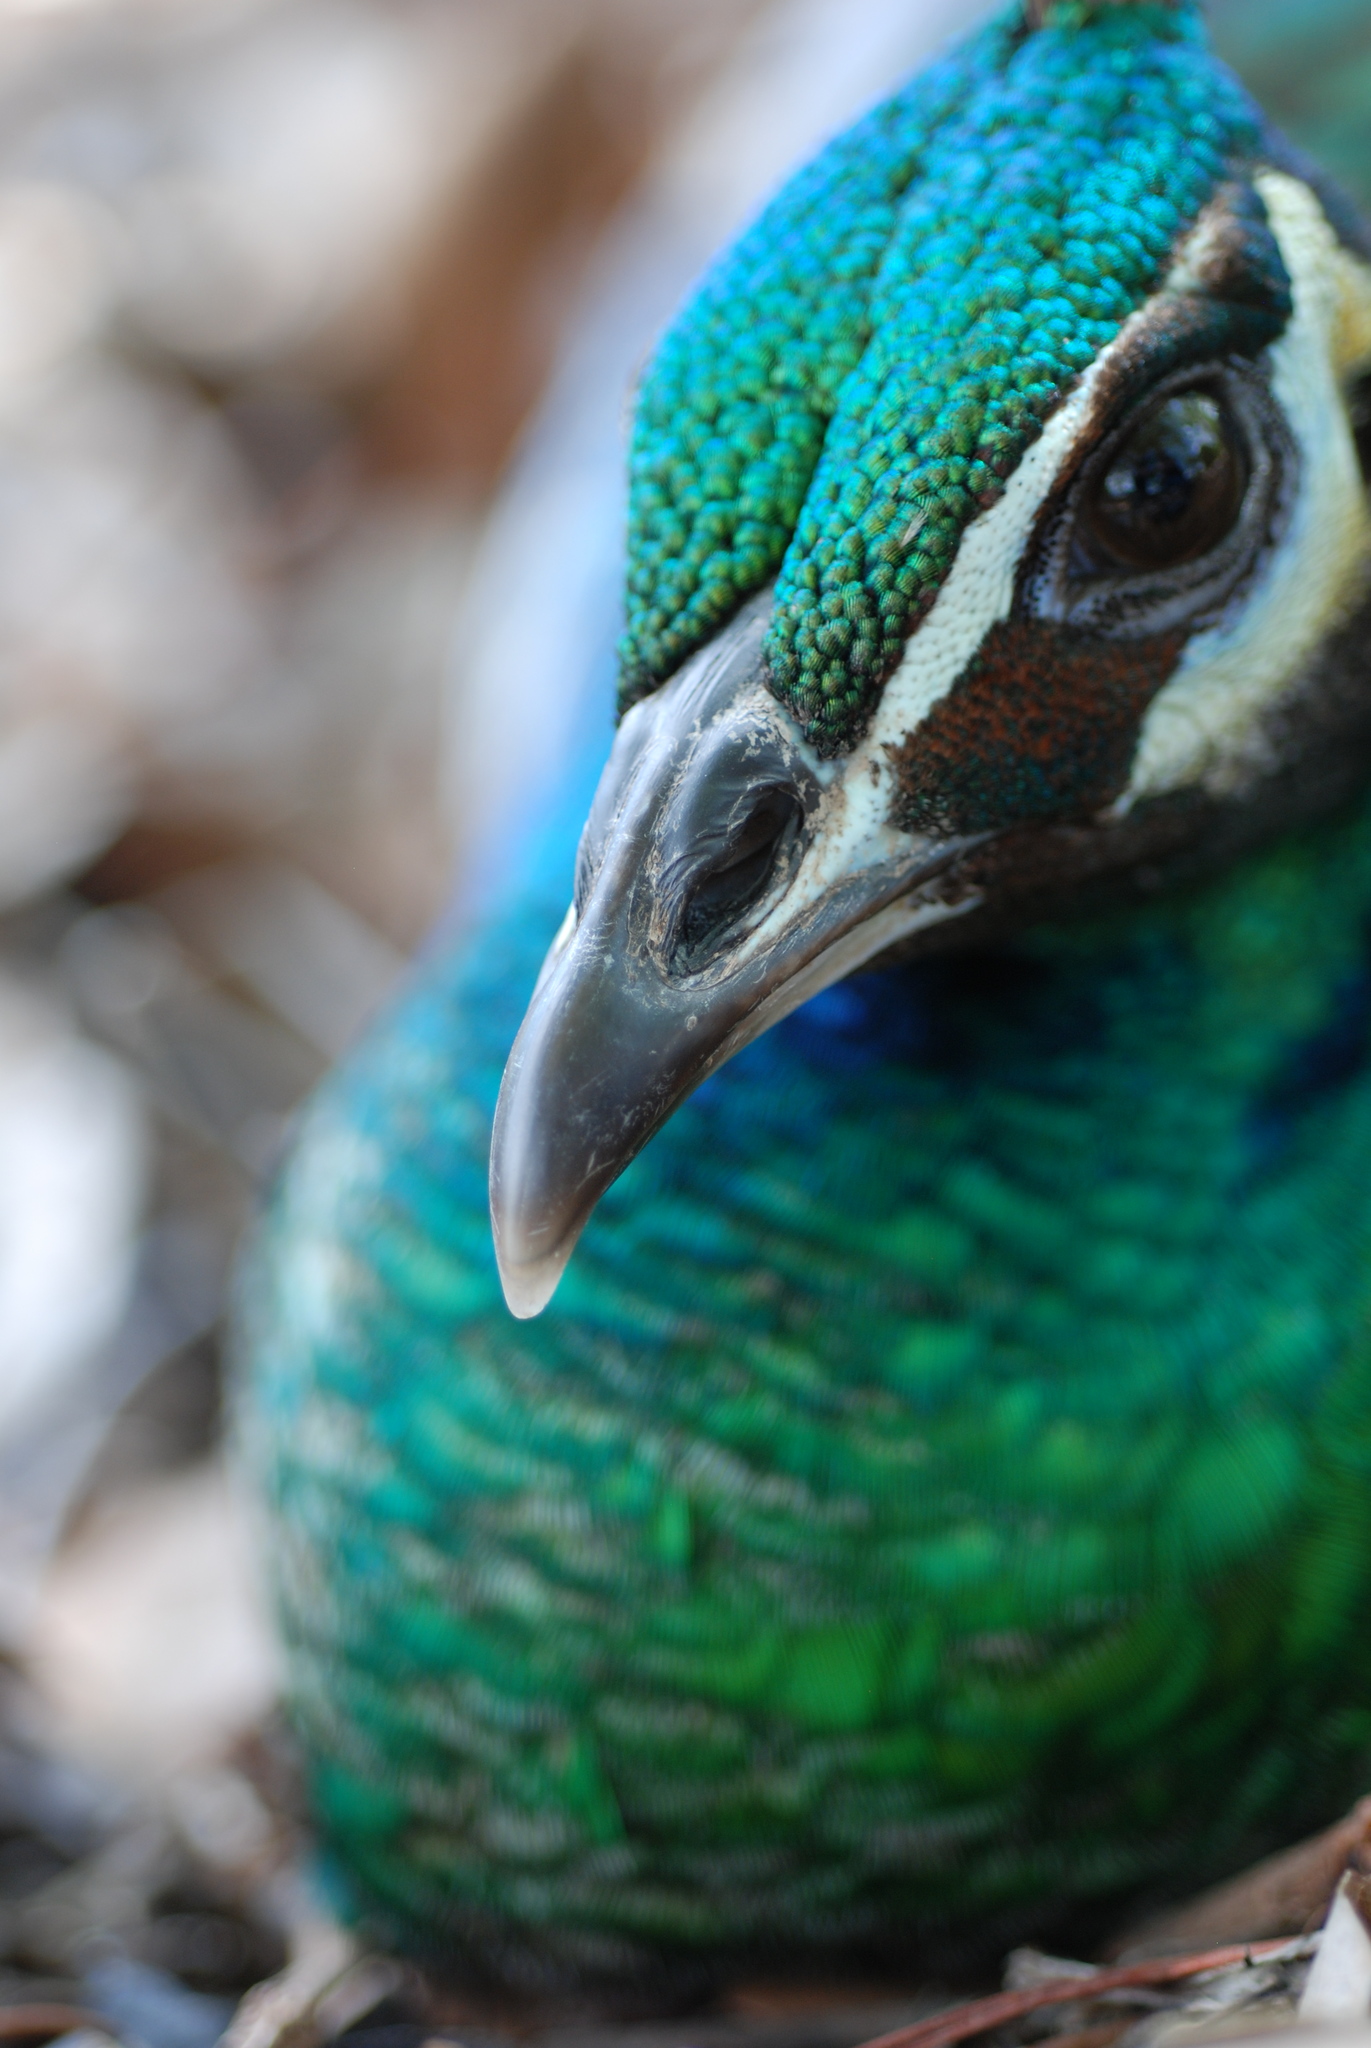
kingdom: Animalia
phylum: Chordata
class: Aves
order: Galliformes
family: Phasianidae
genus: Pavo
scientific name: Pavo cristatus
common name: Indian peafowl
